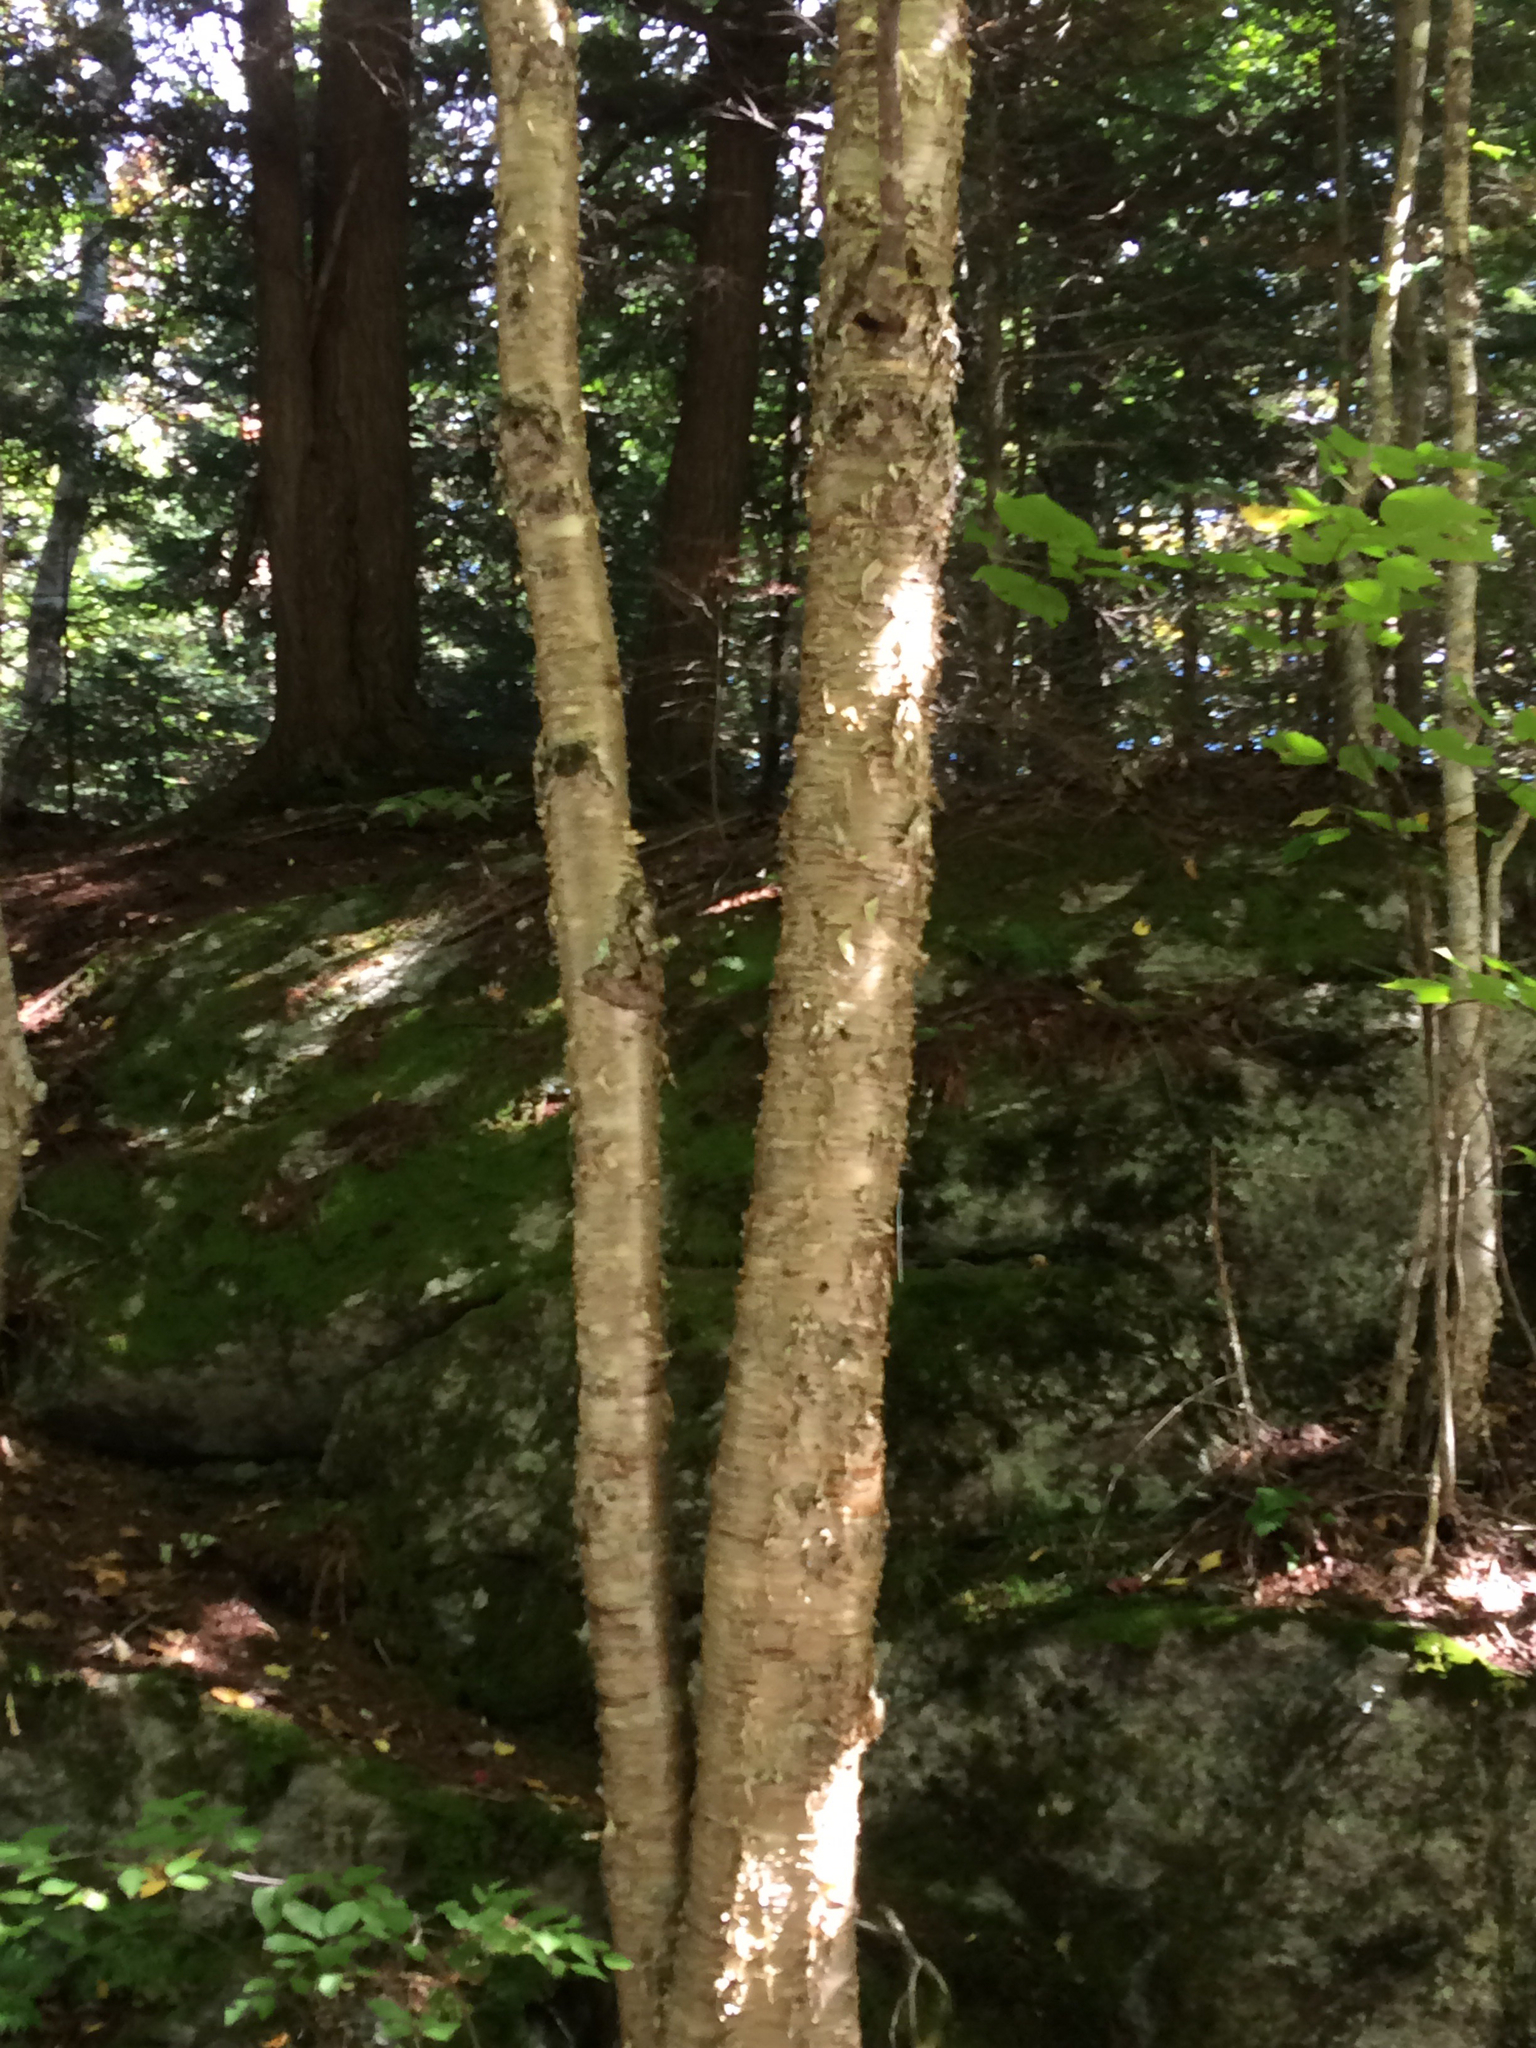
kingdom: Plantae
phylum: Tracheophyta
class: Magnoliopsida
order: Fagales
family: Betulaceae
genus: Betula
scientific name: Betula alleghaniensis
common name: Yellow birch
